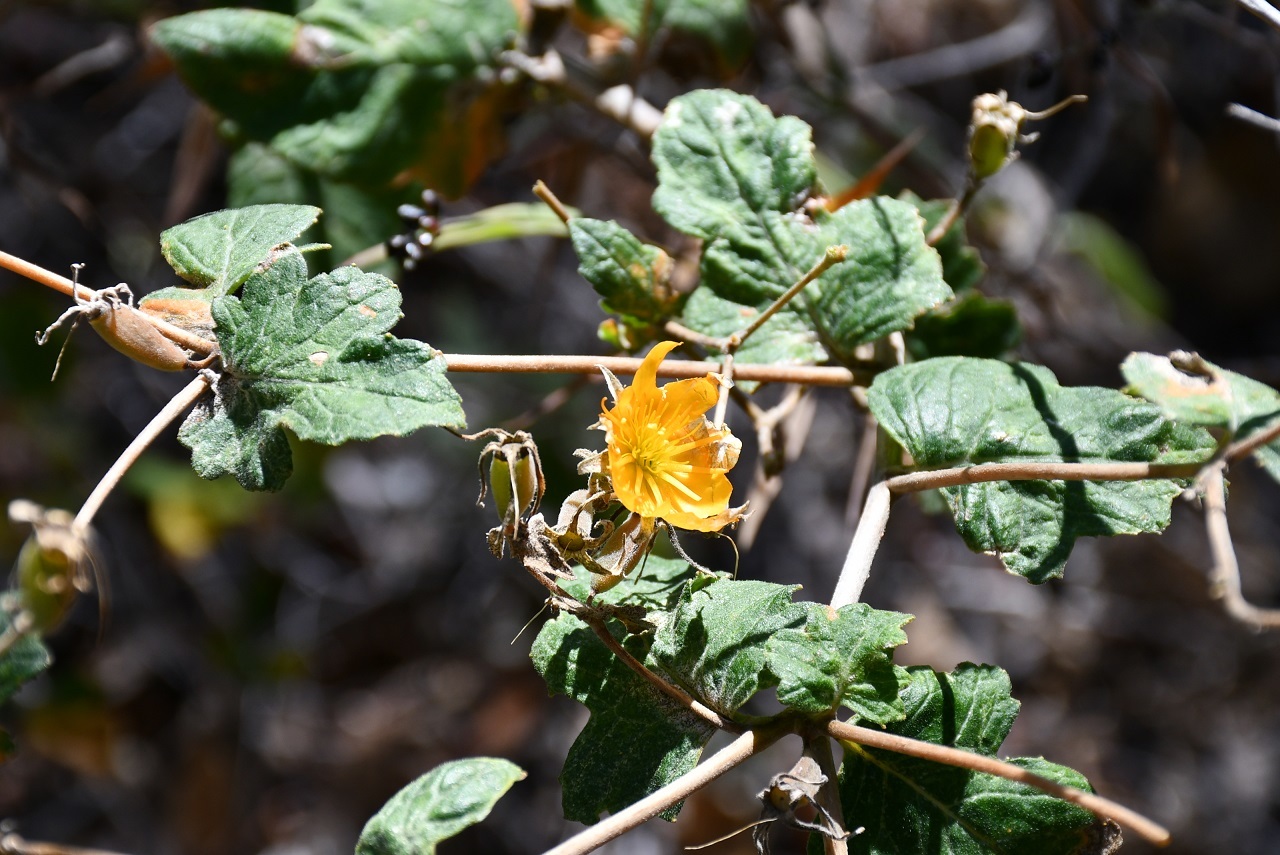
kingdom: Plantae
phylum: Tracheophyta
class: Magnoliopsida
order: Cornales
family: Loasaceae
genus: Mentzelia
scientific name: Mentzelia hispida
